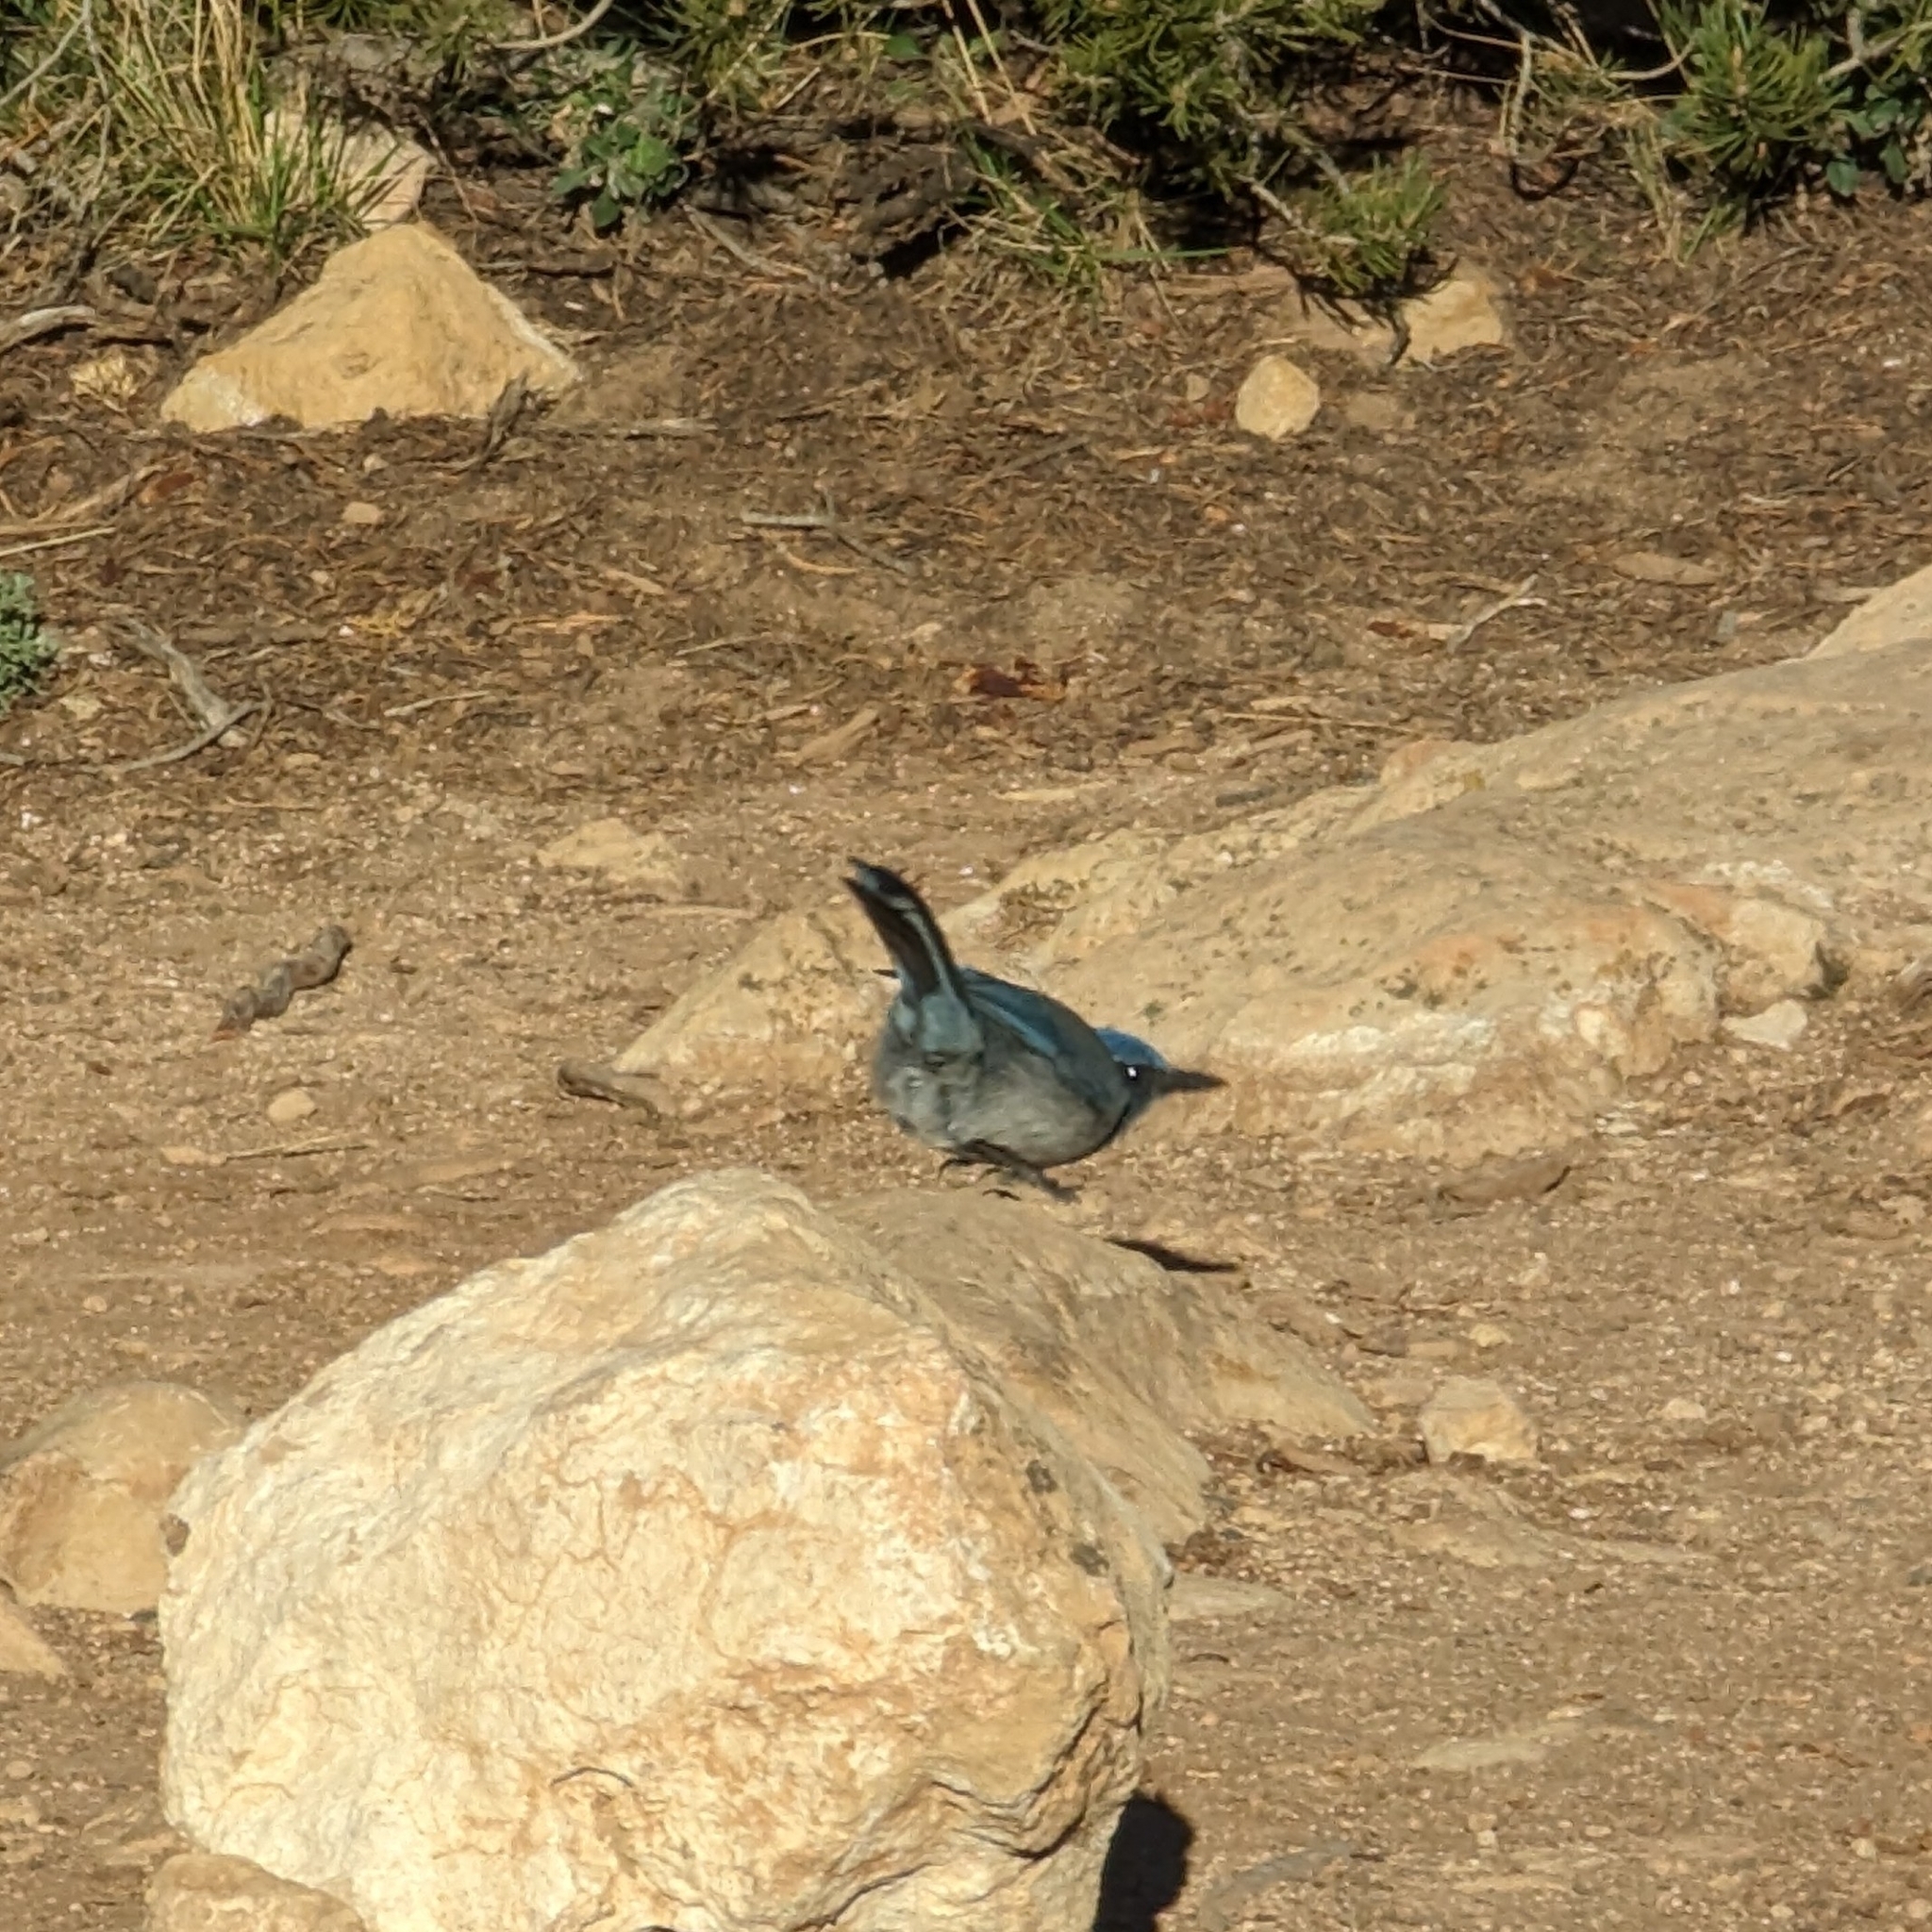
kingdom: Animalia
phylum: Chordata
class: Aves
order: Passeriformes
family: Corvidae
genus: Aphelocoma
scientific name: Aphelocoma woodhouseii
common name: Woodhouse's scrub-jay
